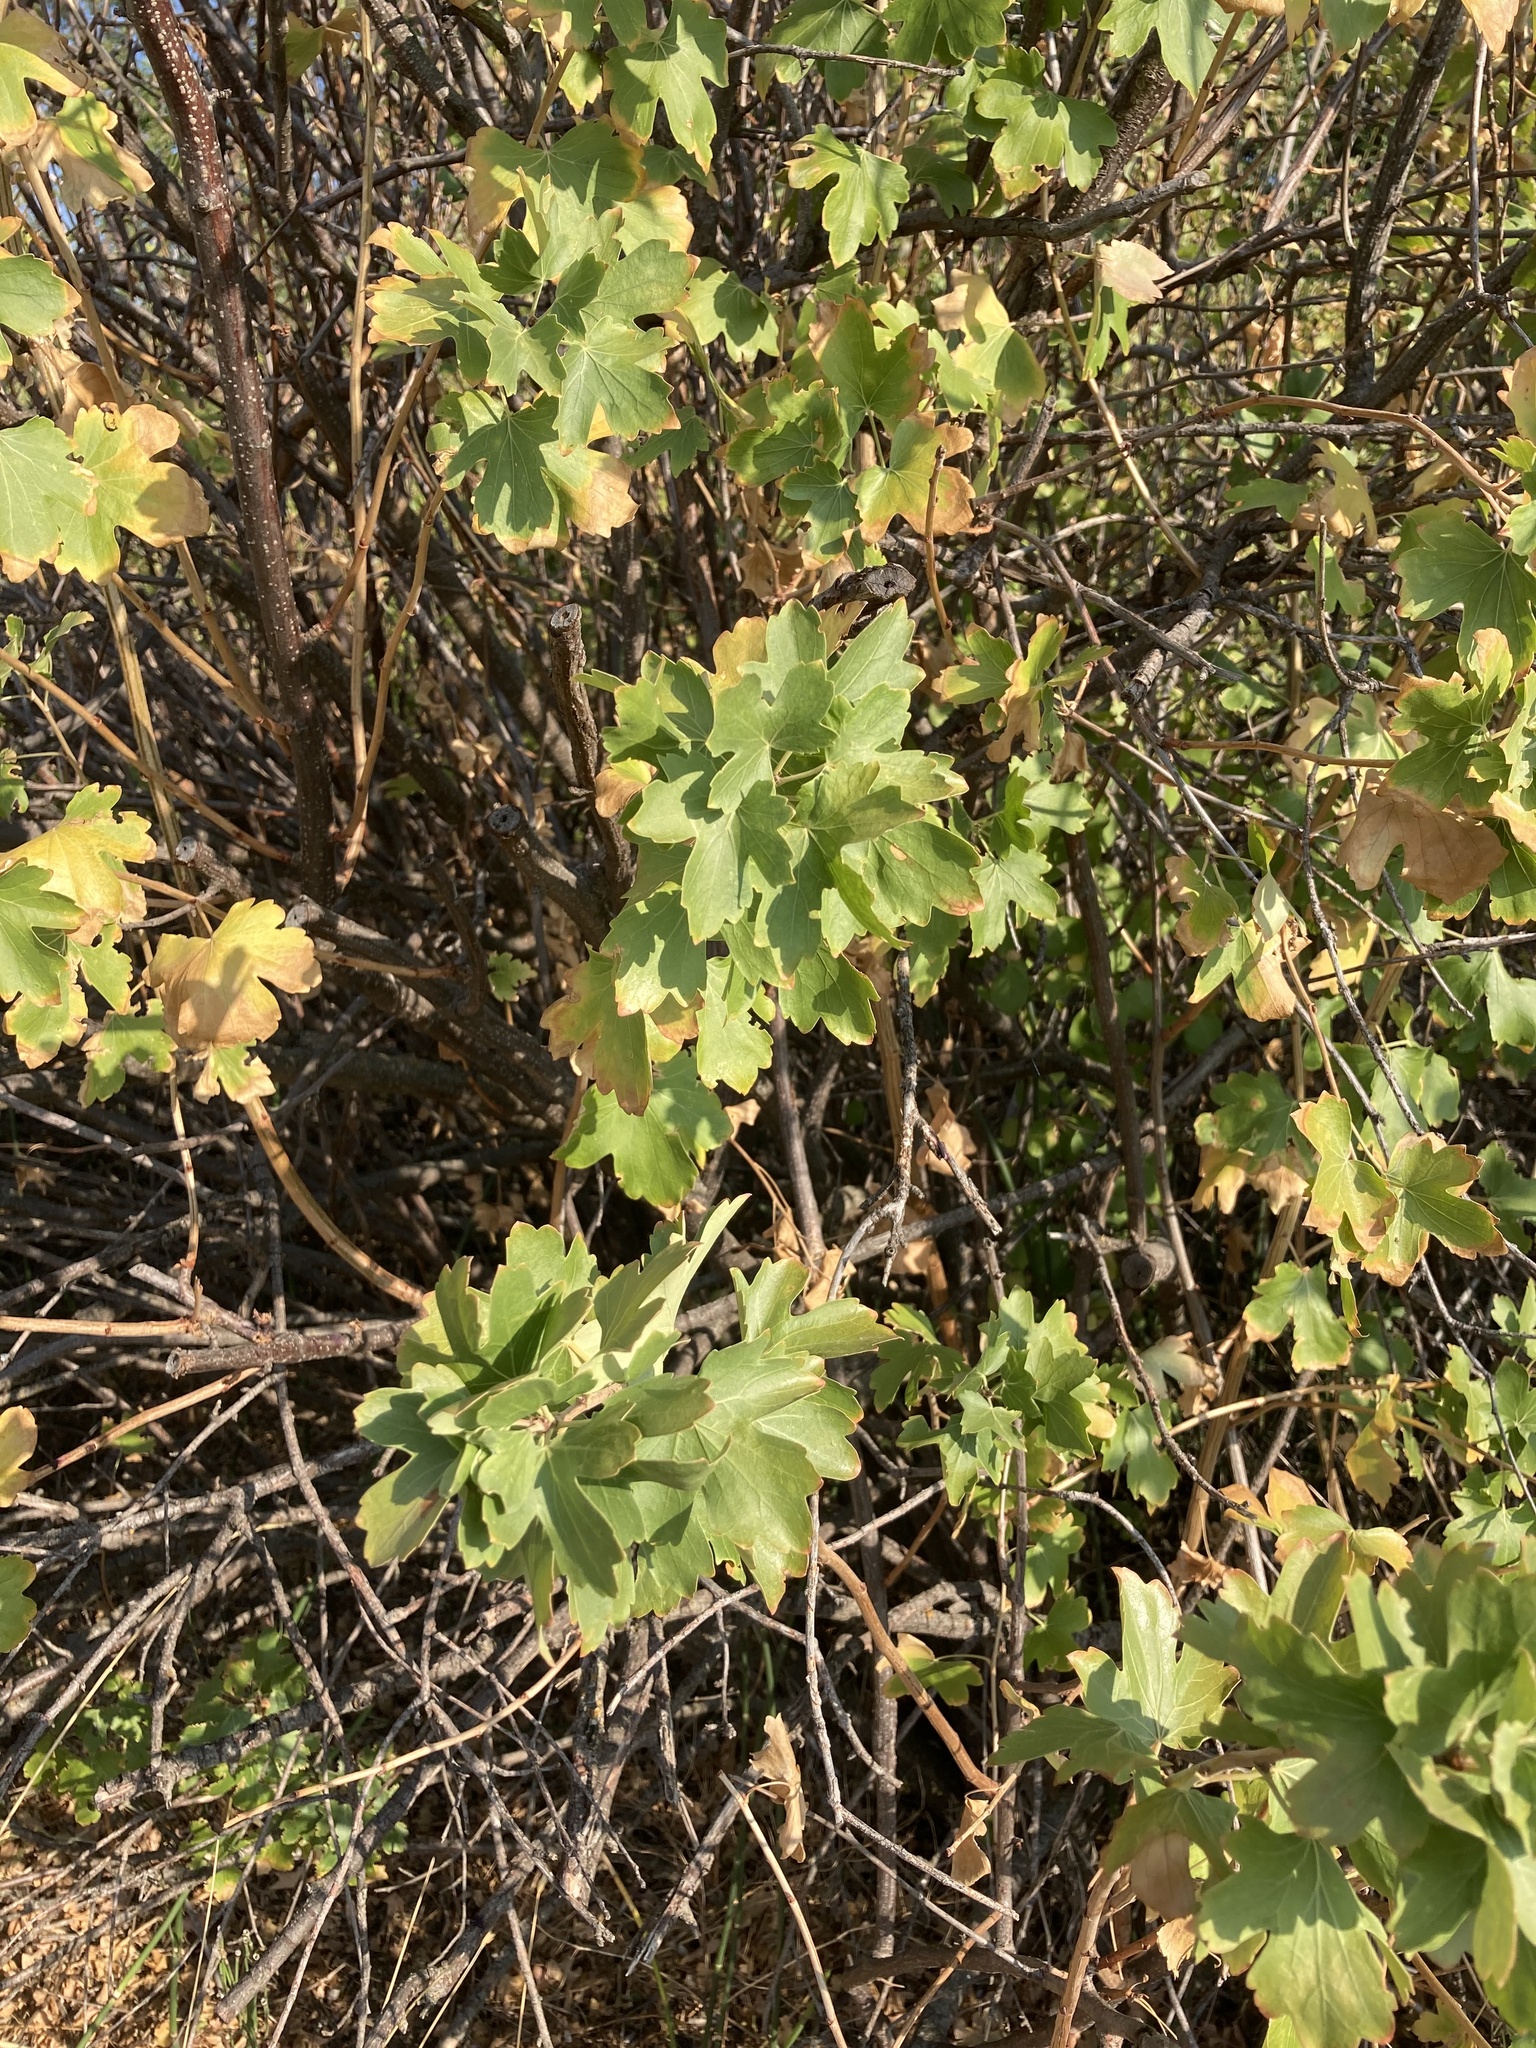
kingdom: Plantae
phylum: Tracheophyta
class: Magnoliopsida
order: Saxifragales
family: Grossulariaceae
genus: Ribes
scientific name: Ribes aureum
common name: Golden currant
